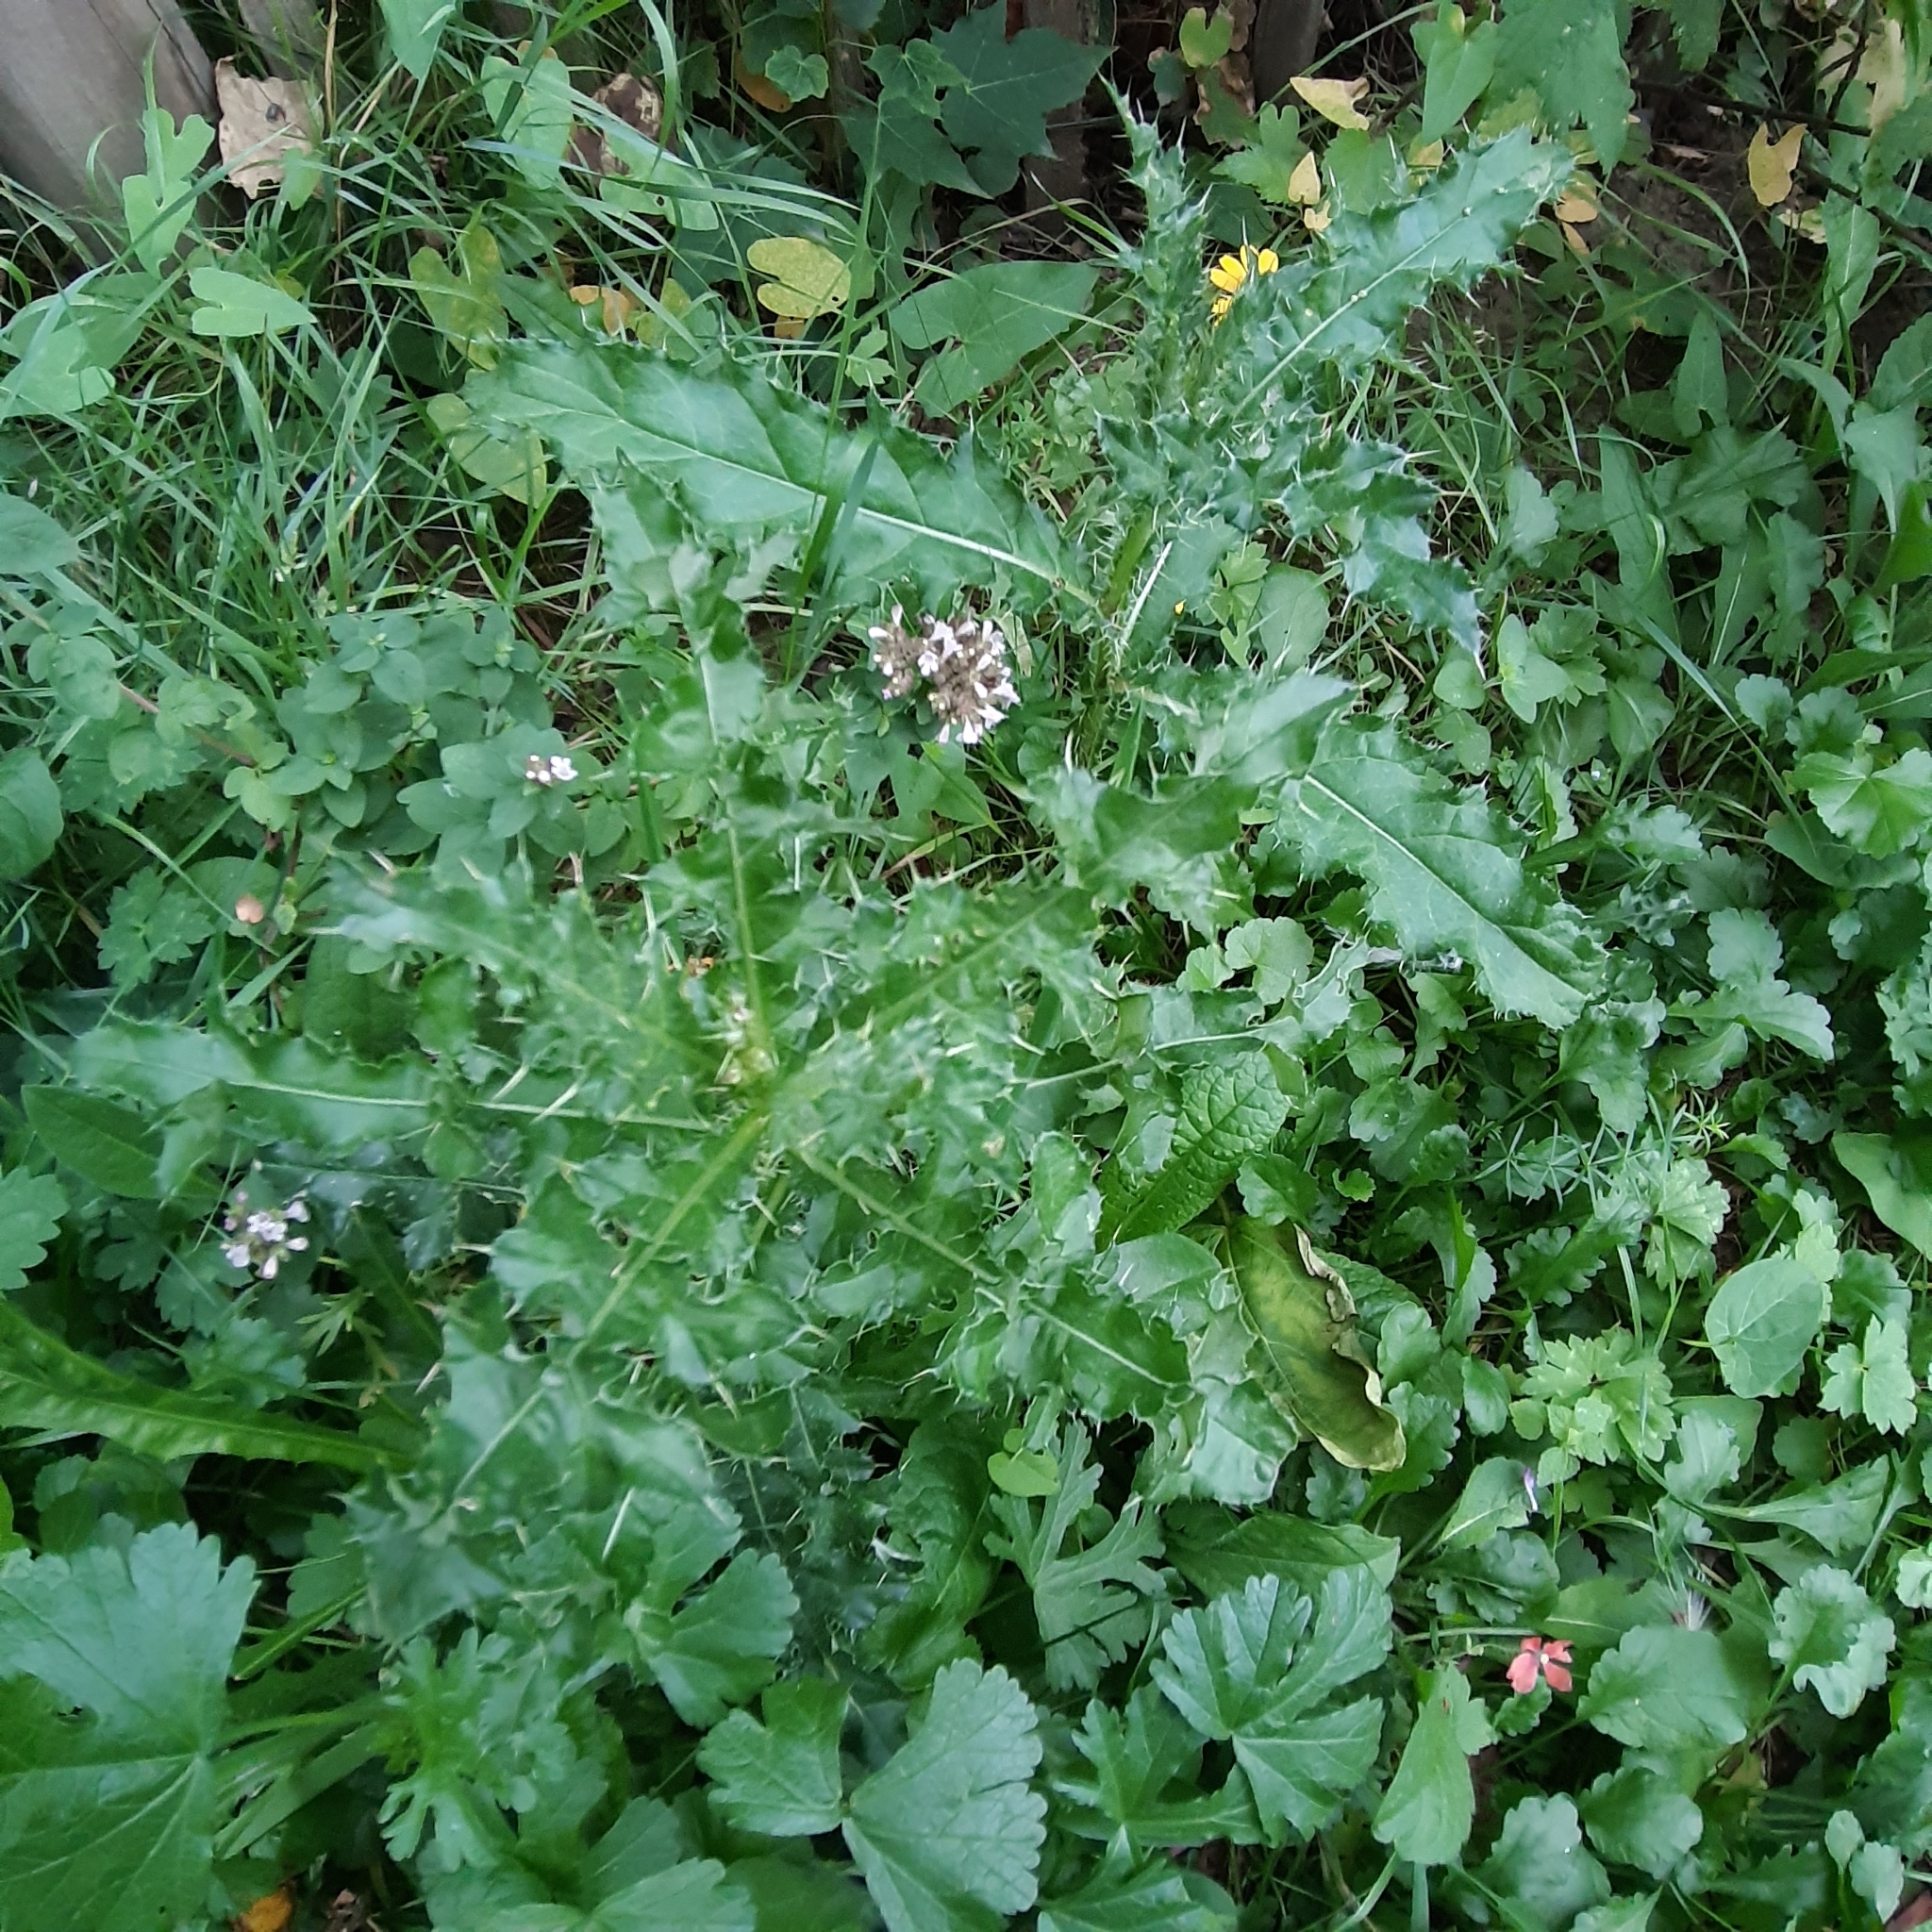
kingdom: Plantae
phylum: Tracheophyta
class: Magnoliopsida
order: Asterales
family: Asteraceae
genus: Cirsium
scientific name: Cirsium arvense
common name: Creeping thistle
